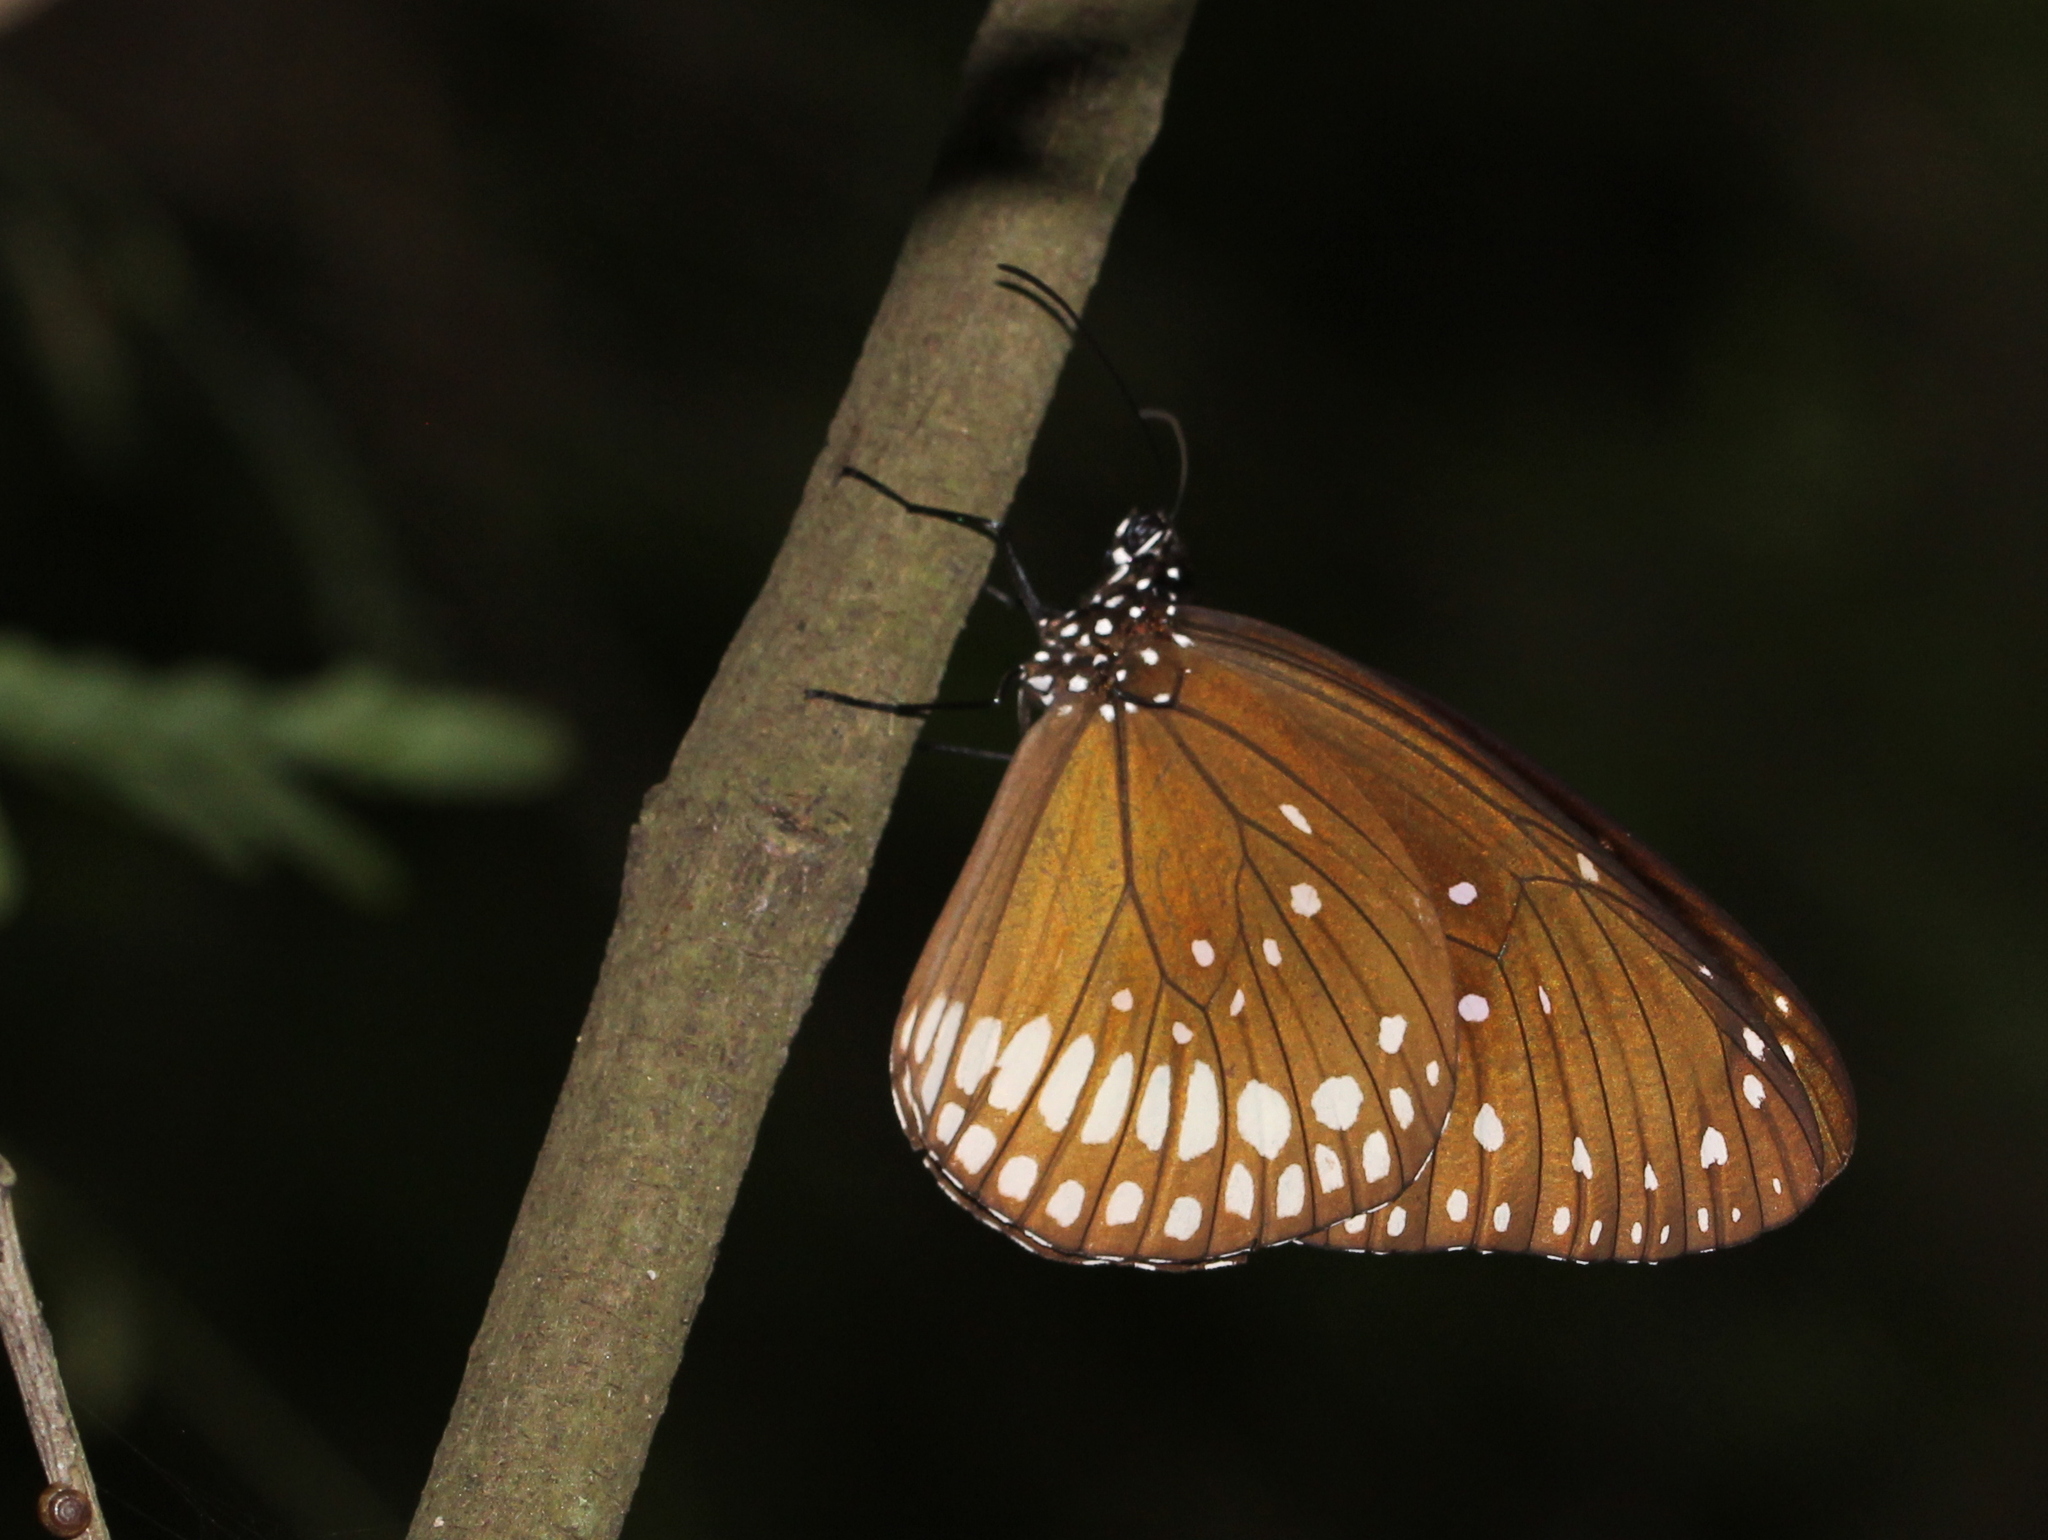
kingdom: Animalia
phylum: Arthropoda
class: Insecta
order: Lepidoptera
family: Nymphalidae
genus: Euploea
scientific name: Euploea core
